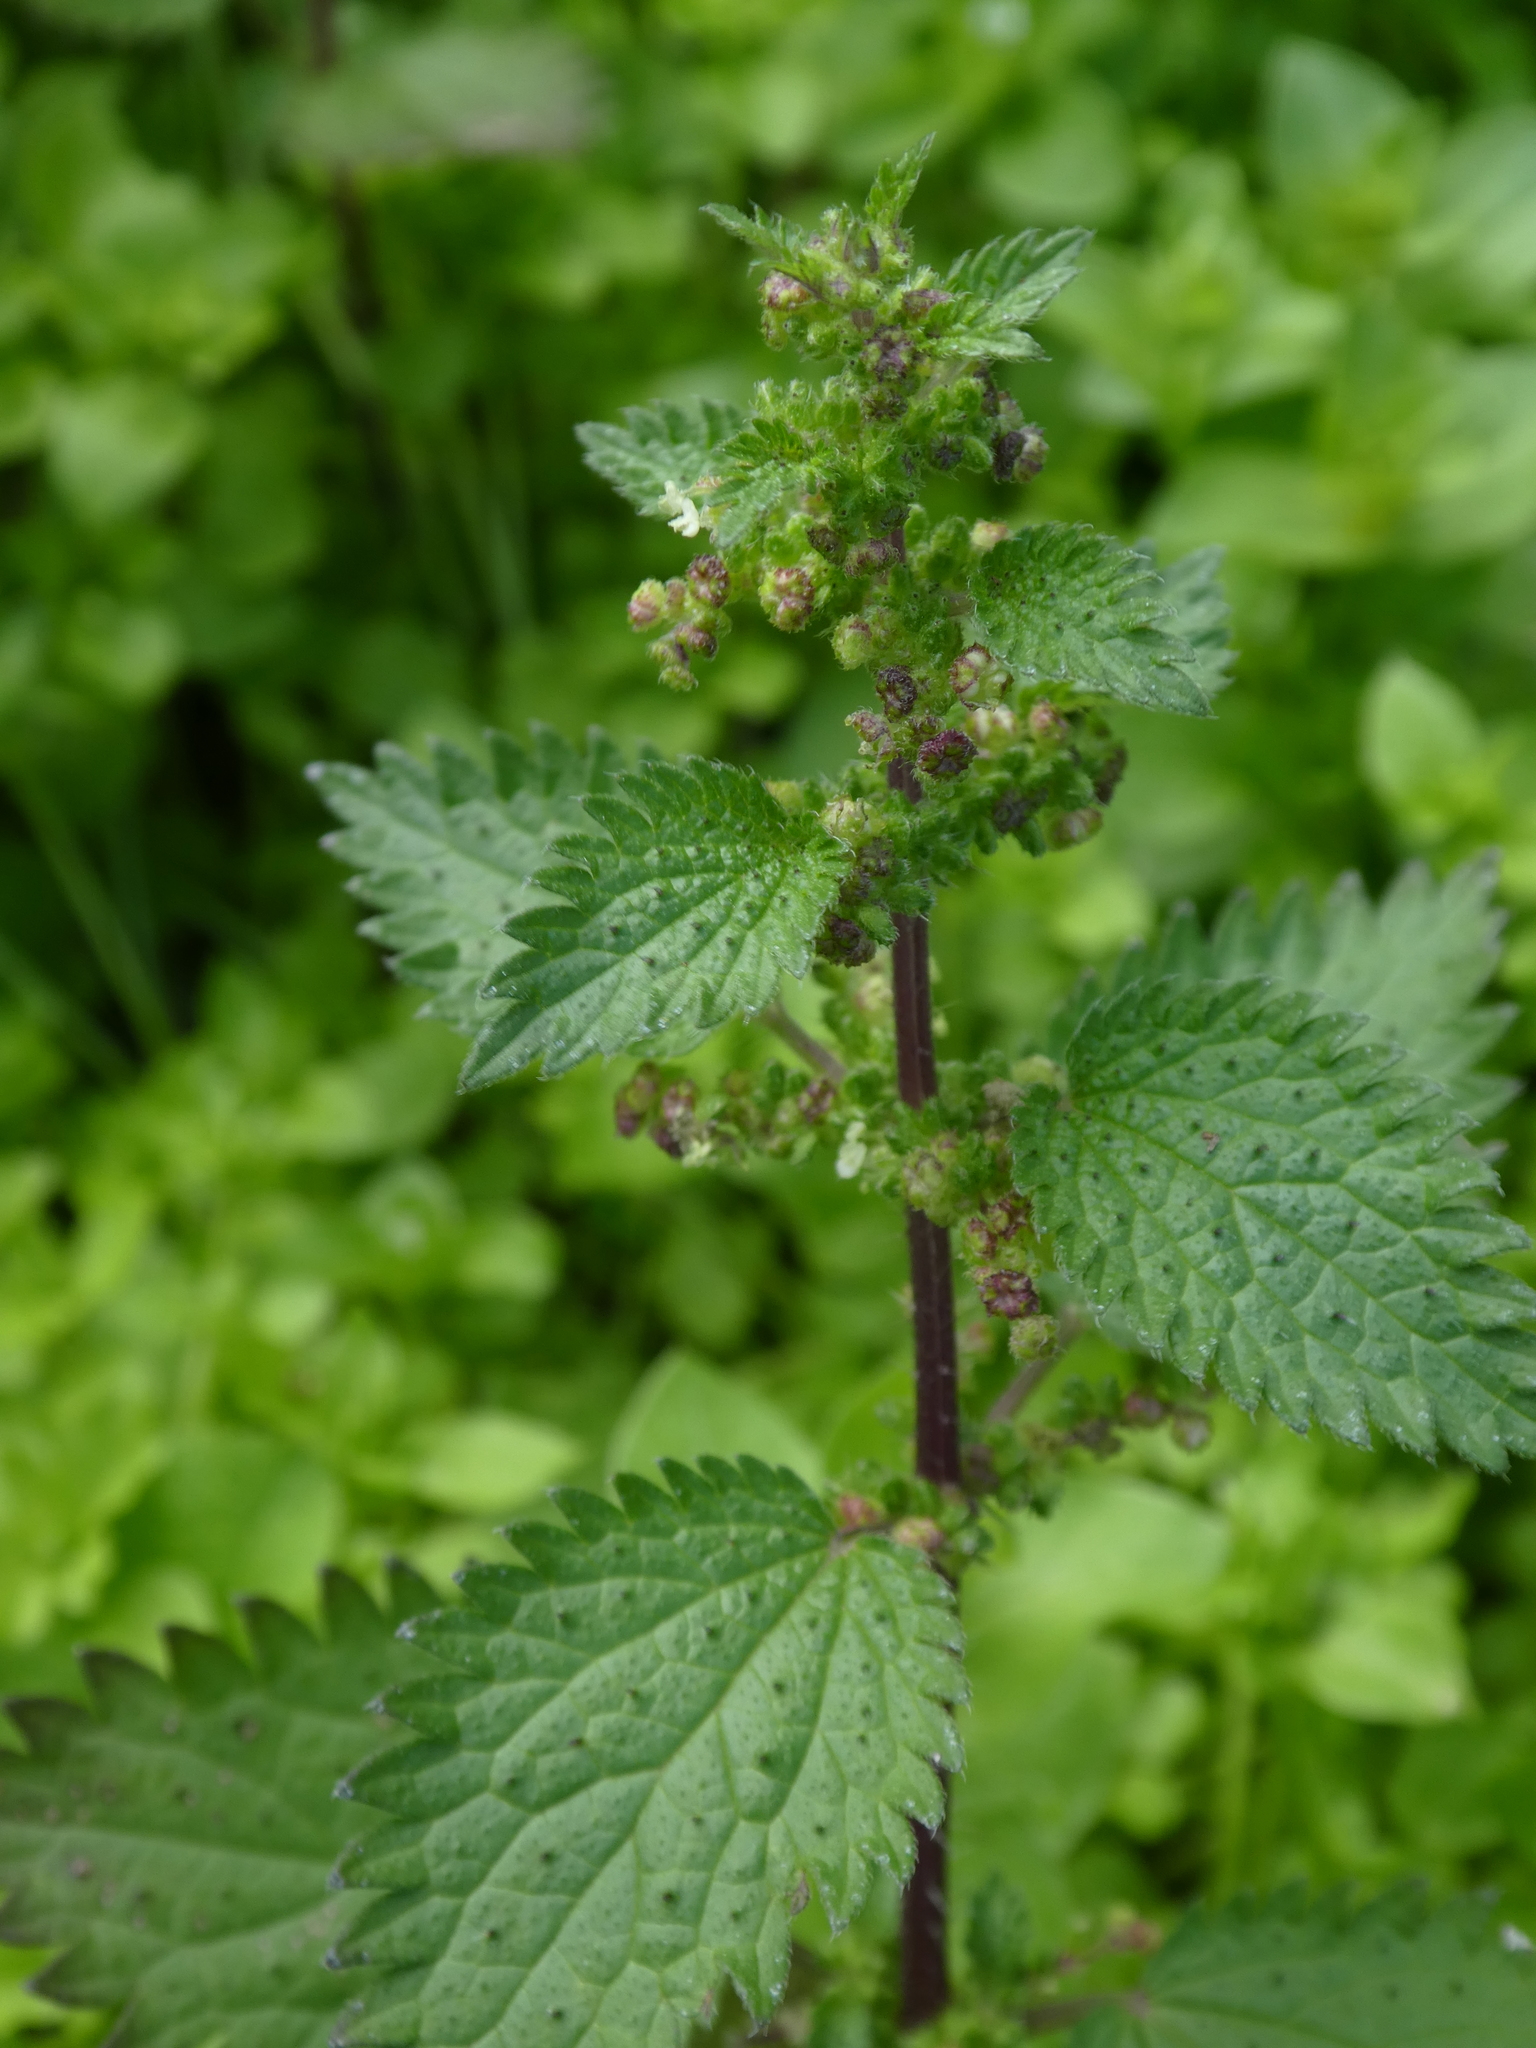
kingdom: Plantae
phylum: Tracheophyta
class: Magnoliopsida
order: Rosales
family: Urticaceae
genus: Urtica
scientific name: Urtica urens
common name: Dwarf nettle
